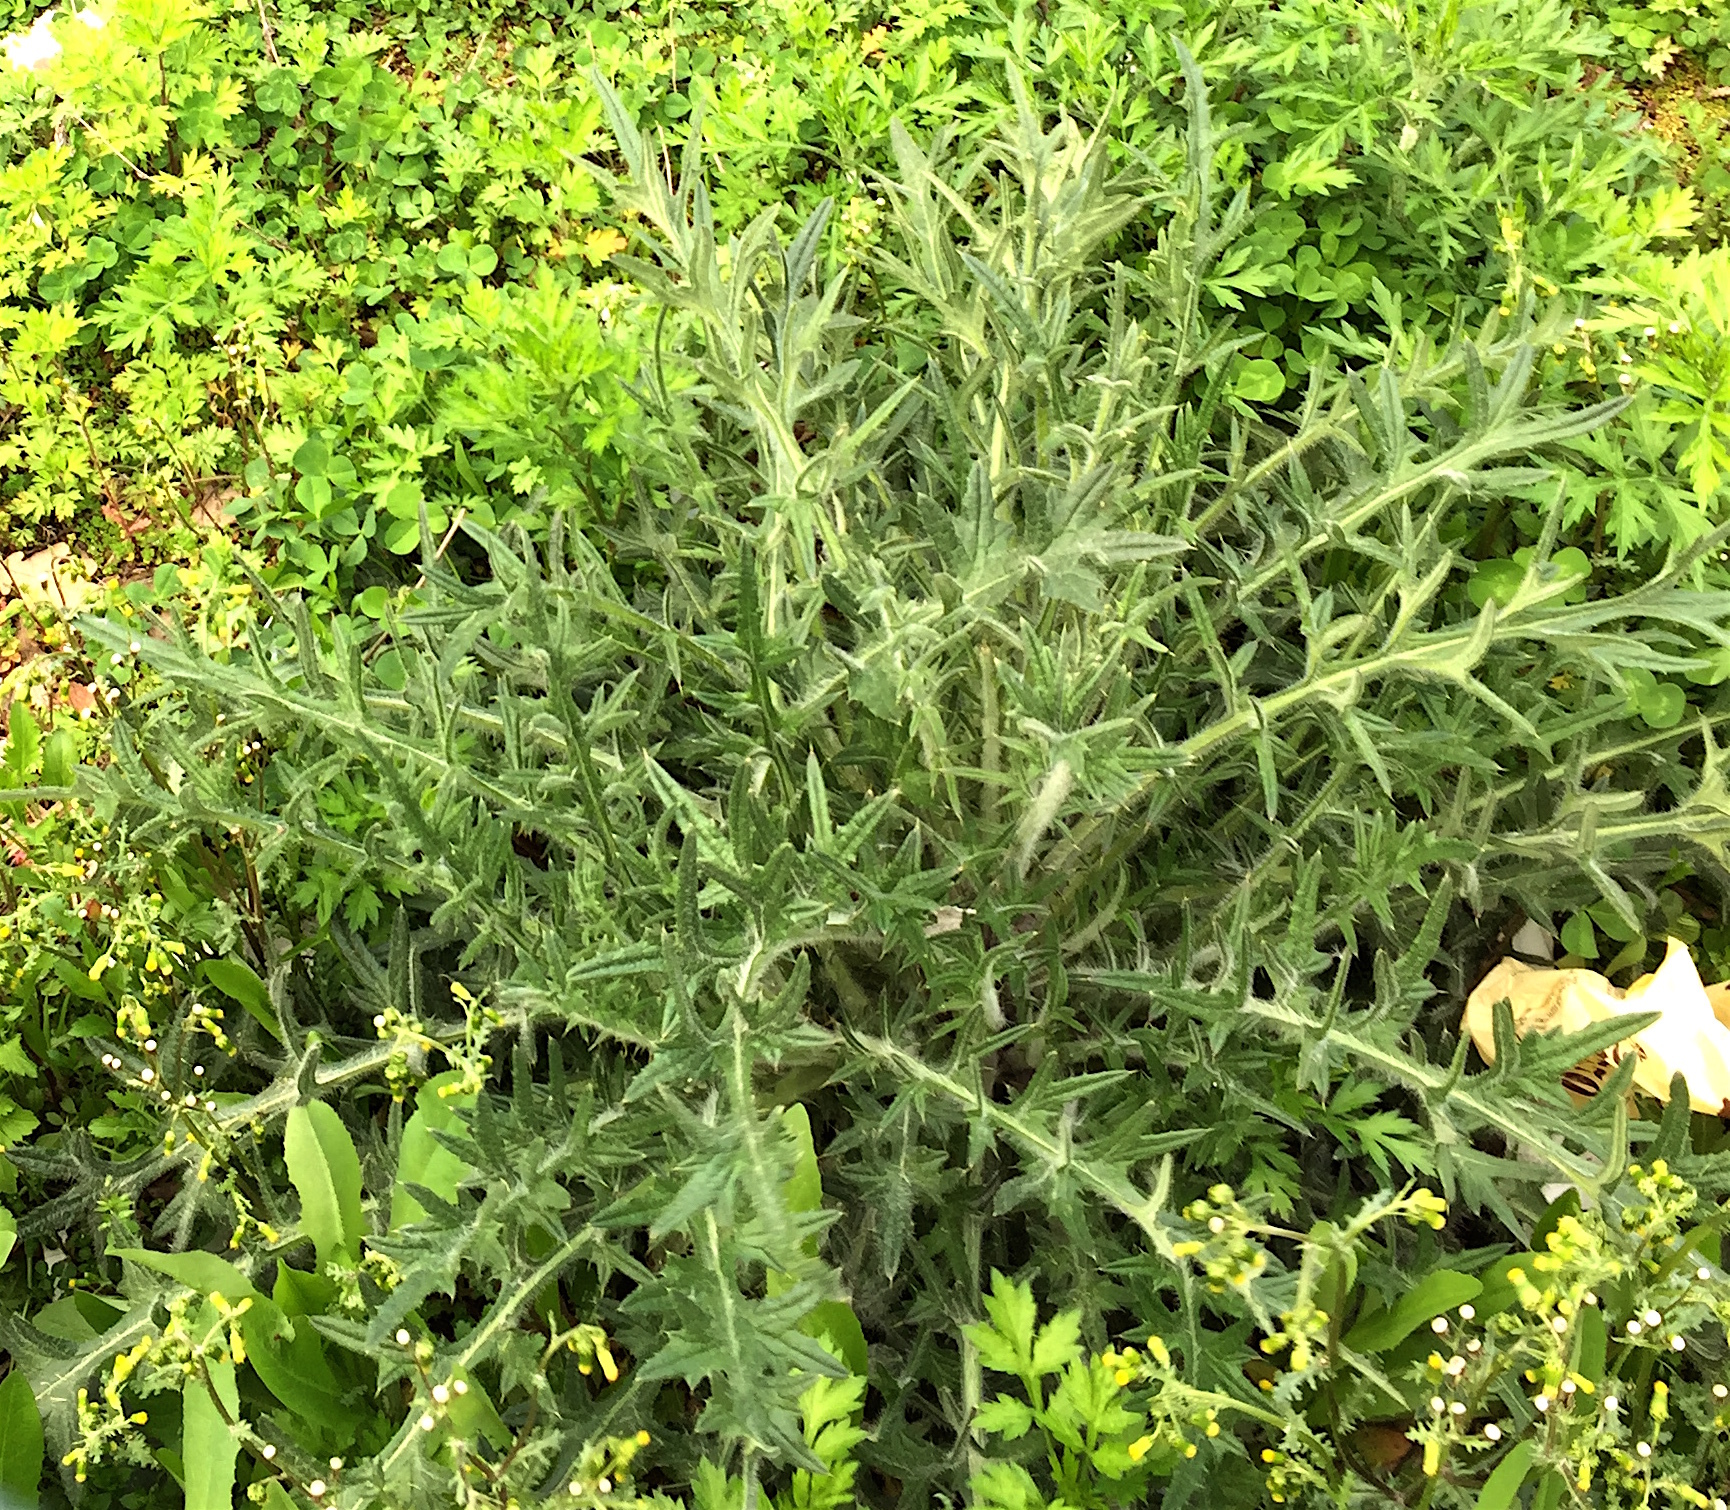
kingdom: Plantae
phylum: Tracheophyta
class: Magnoliopsida
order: Asterales
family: Asteraceae
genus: Cirsium
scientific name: Cirsium vulgare
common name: Bull thistle
